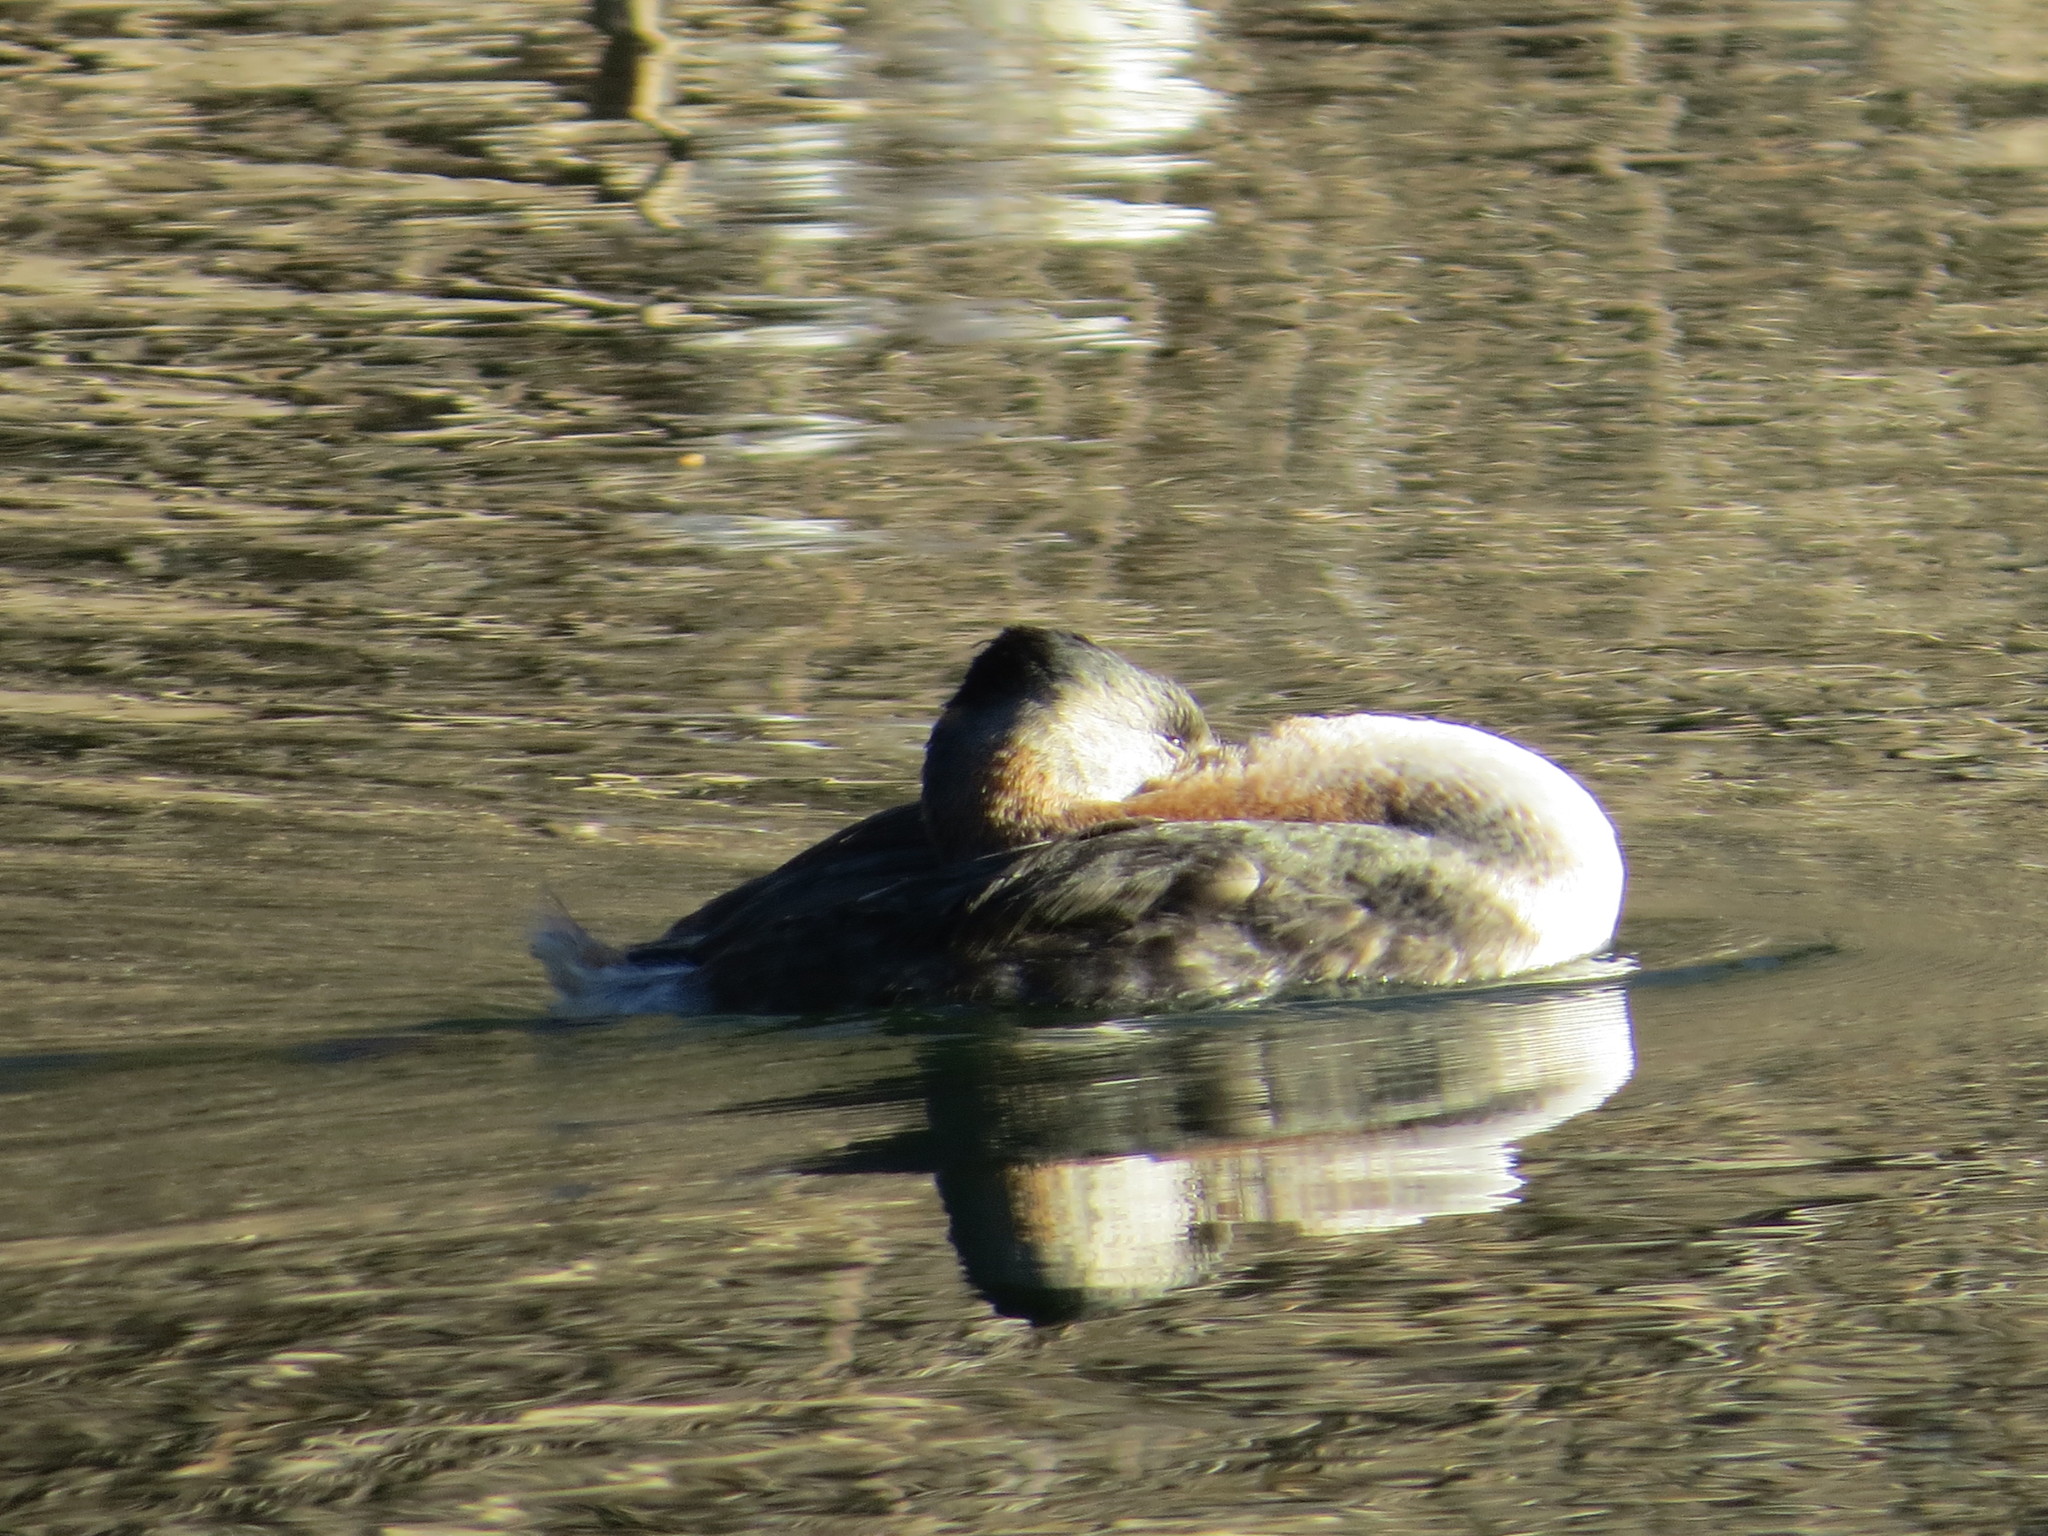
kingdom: Animalia
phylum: Chordata
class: Aves
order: Podicipediformes
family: Podicipedidae
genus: Podiceps
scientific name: Podiceps major
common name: Great grebe
